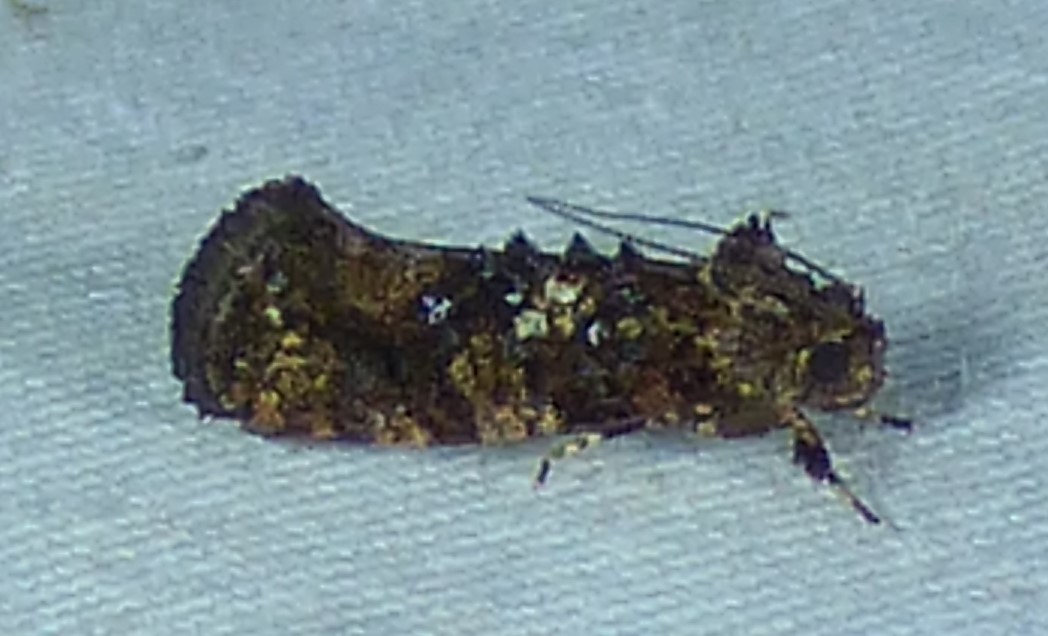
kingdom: Animalia
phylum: Arthropoda
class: Insecta
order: Lepidoptera
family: Tineidae
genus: Acrolophus
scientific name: Acrolophus cressoni
